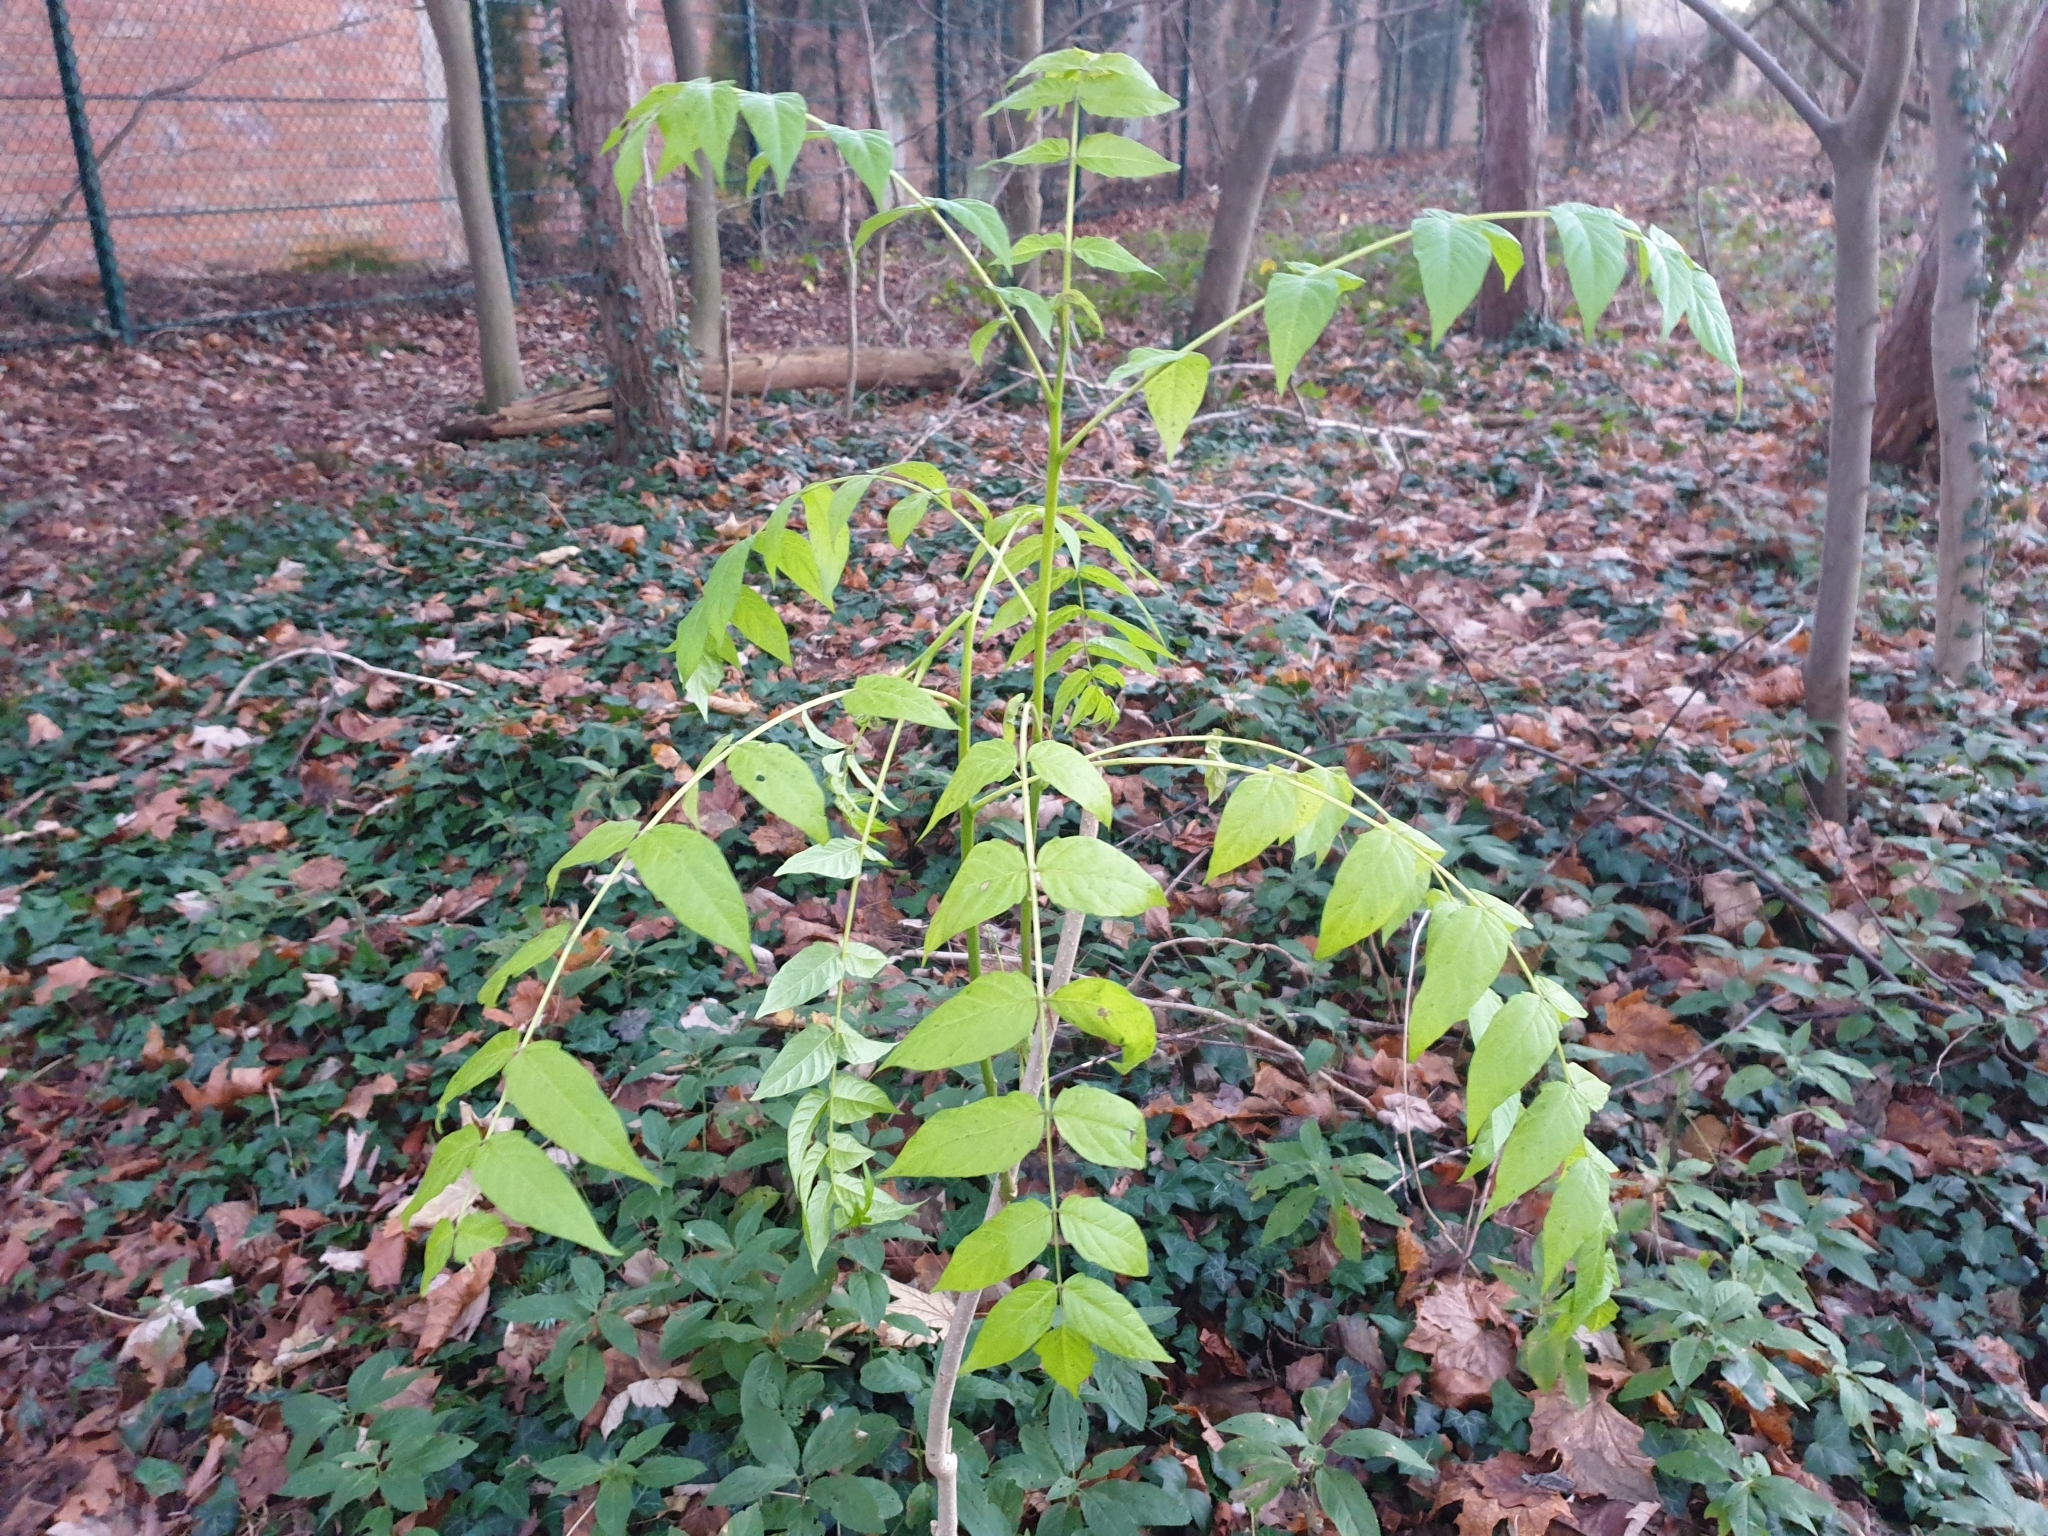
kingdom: Plantae
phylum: Tracheophyta
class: Magnoliopsida
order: Sapindales
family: Simaroubaceae
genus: Ailanthus
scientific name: Ailanthus altissima
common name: Tree-of-heaven
